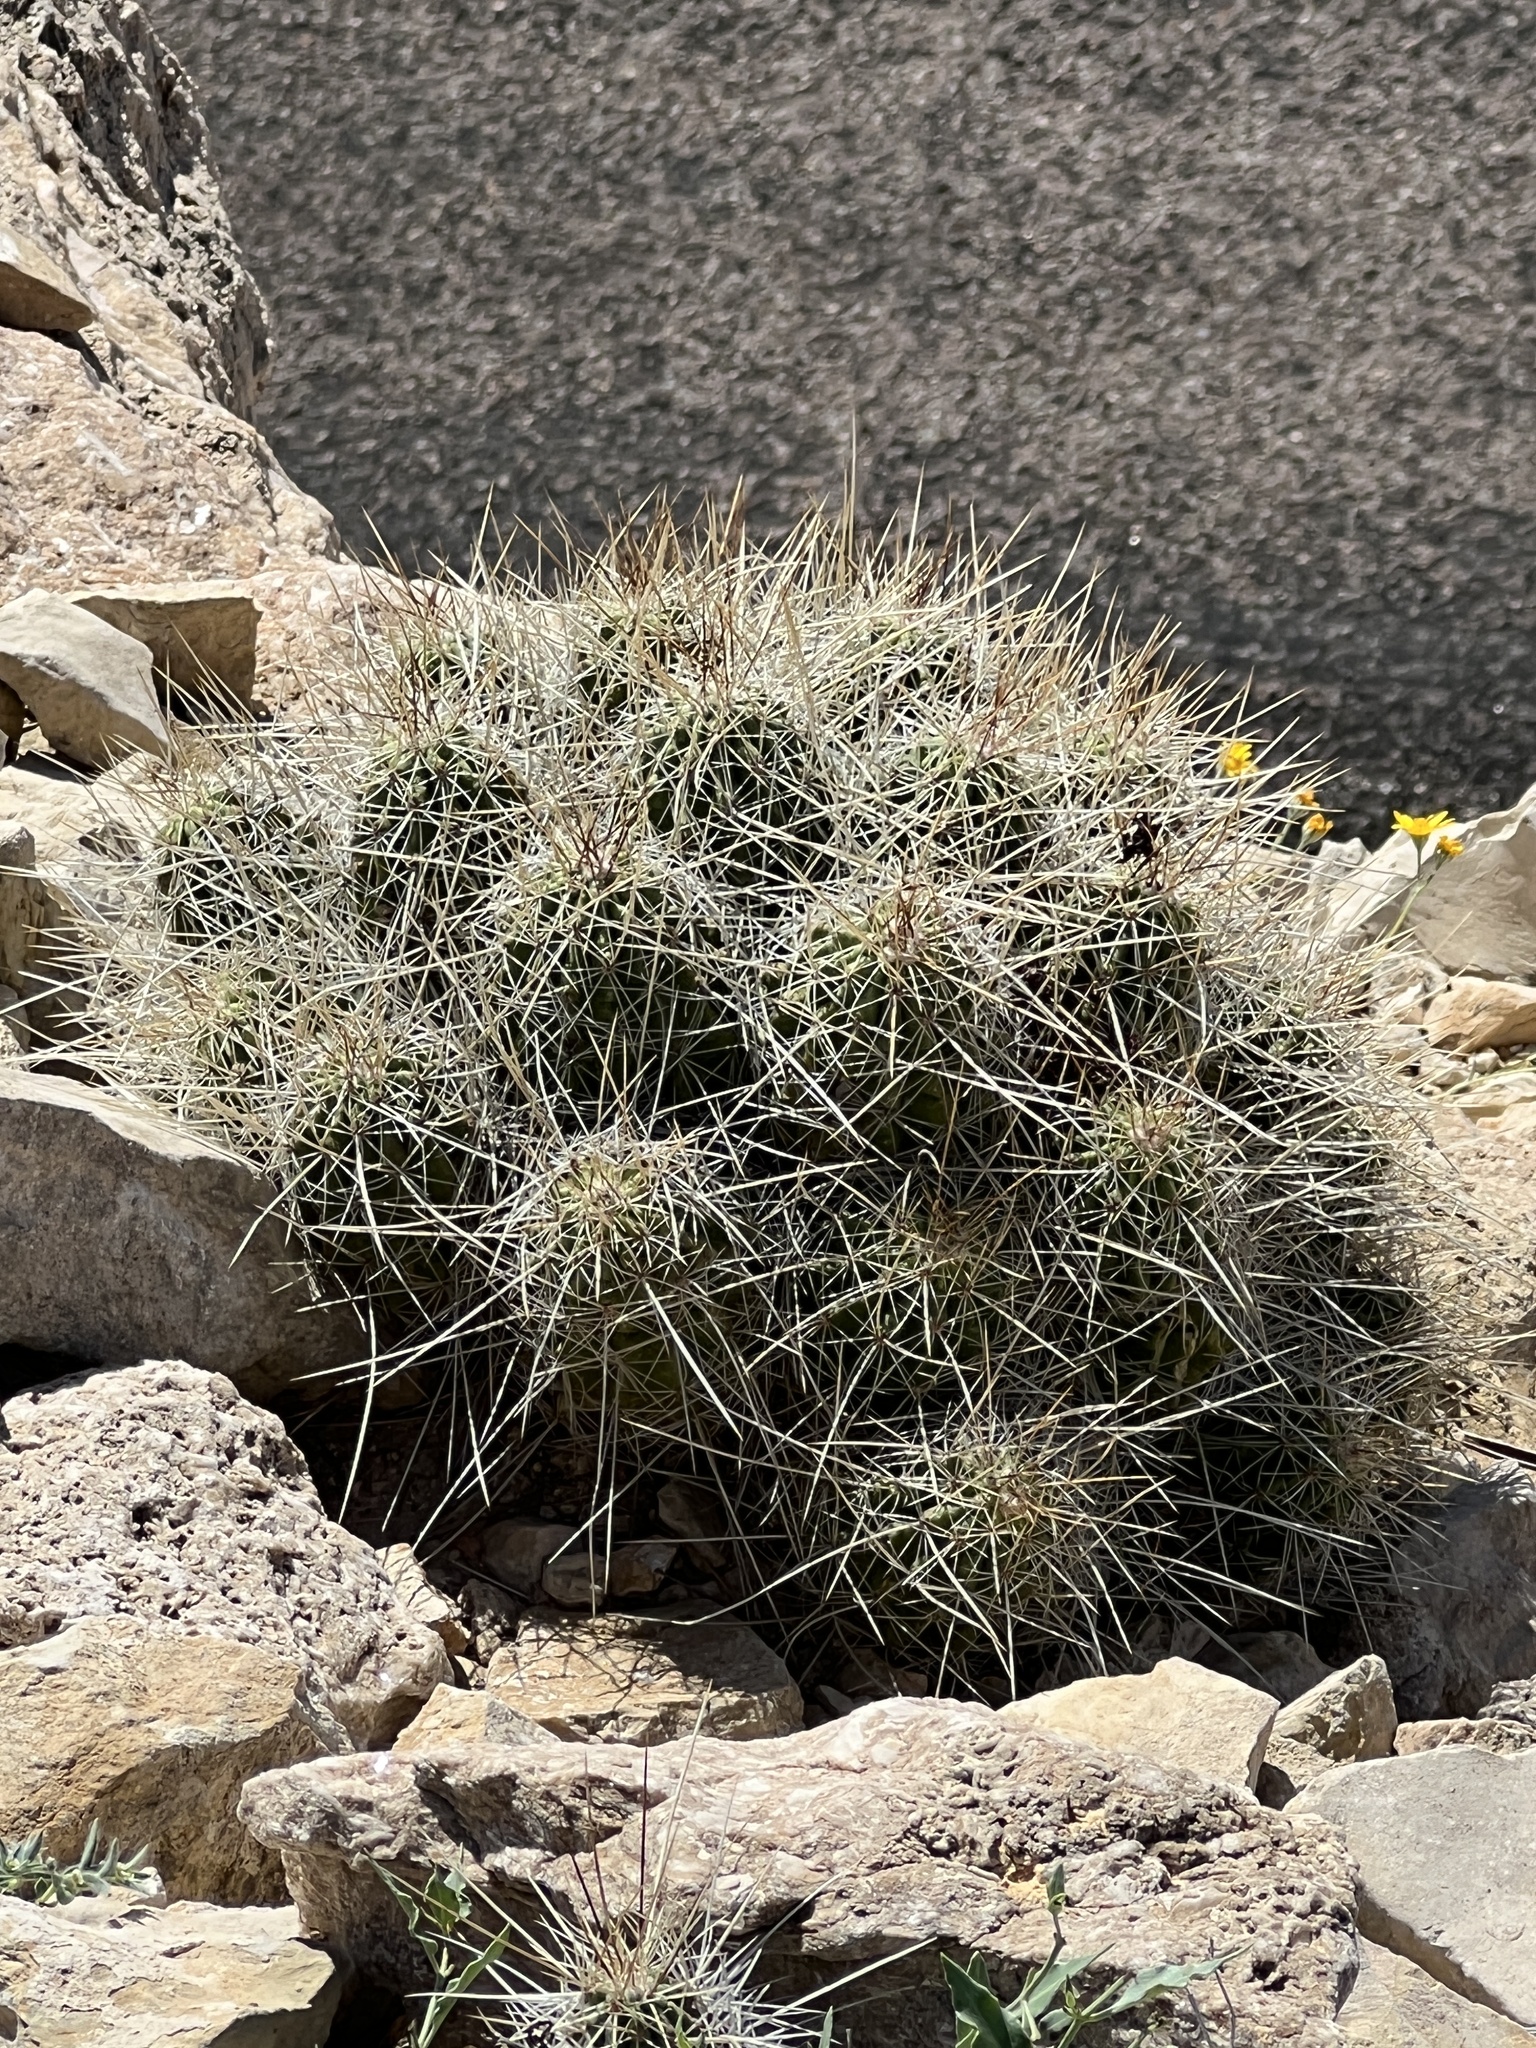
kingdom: Plantae
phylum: Tracheophyta
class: Magnoliopsida
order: Caryophyllales
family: Cactaceae
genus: Echinocereus
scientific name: Echinocereus stramineus
